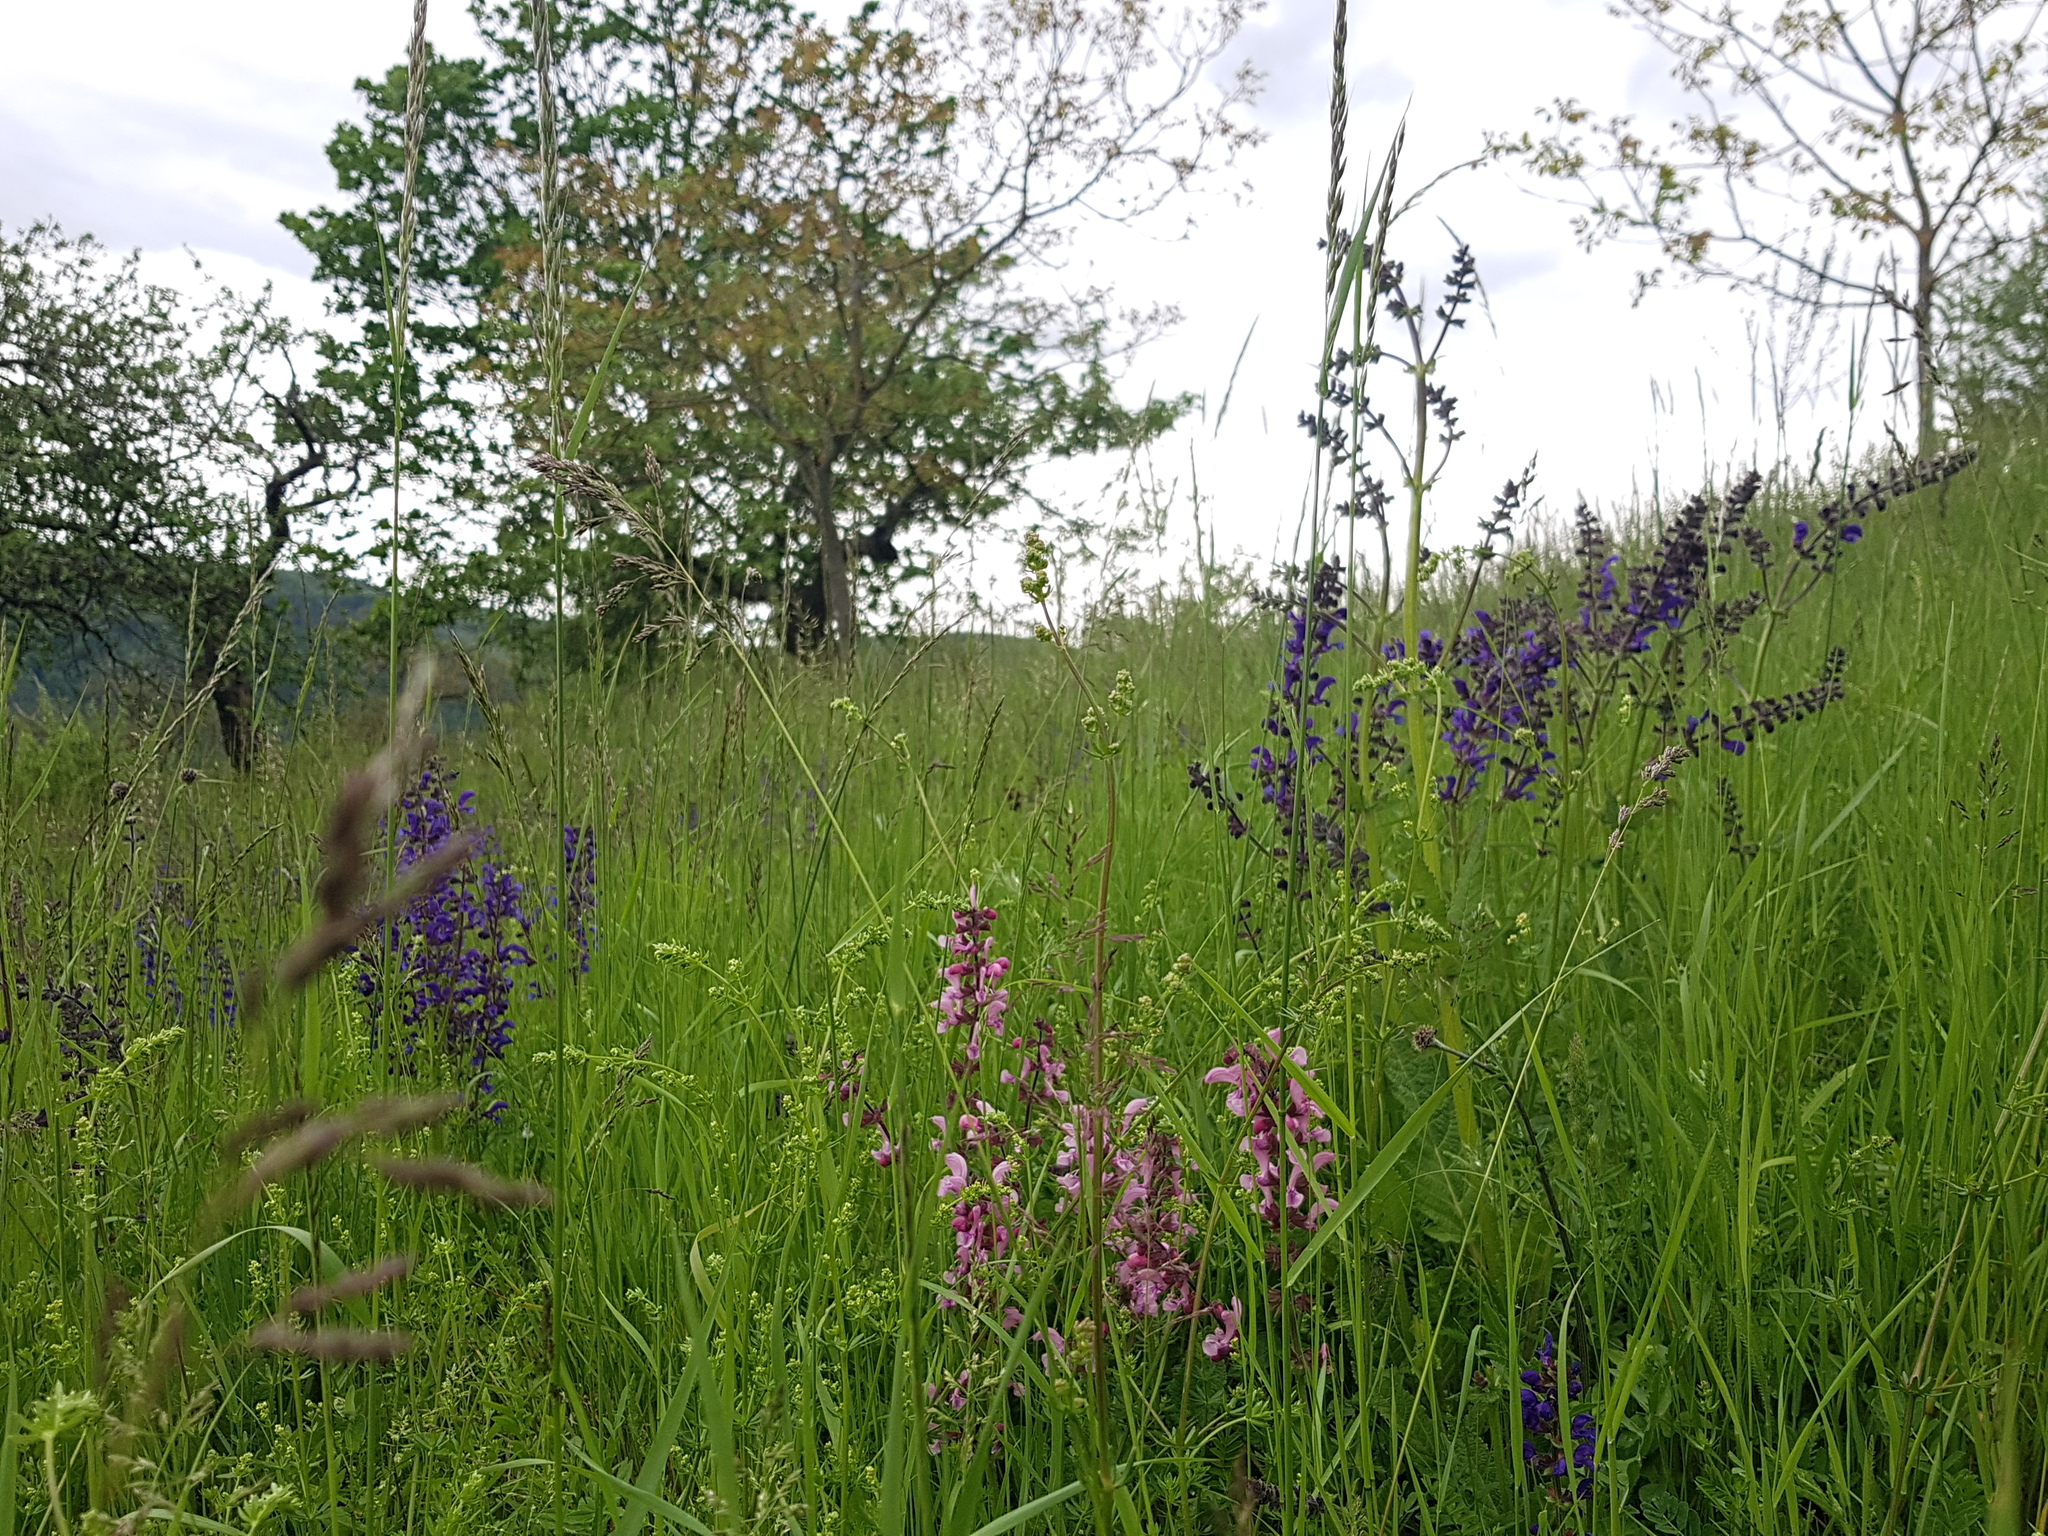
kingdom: Plantae
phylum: Tracheophyta
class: Magnoliopsida
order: Lamiales
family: Lamiaceae
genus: Salvia
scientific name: Salvia pratensis
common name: Meadow sage
